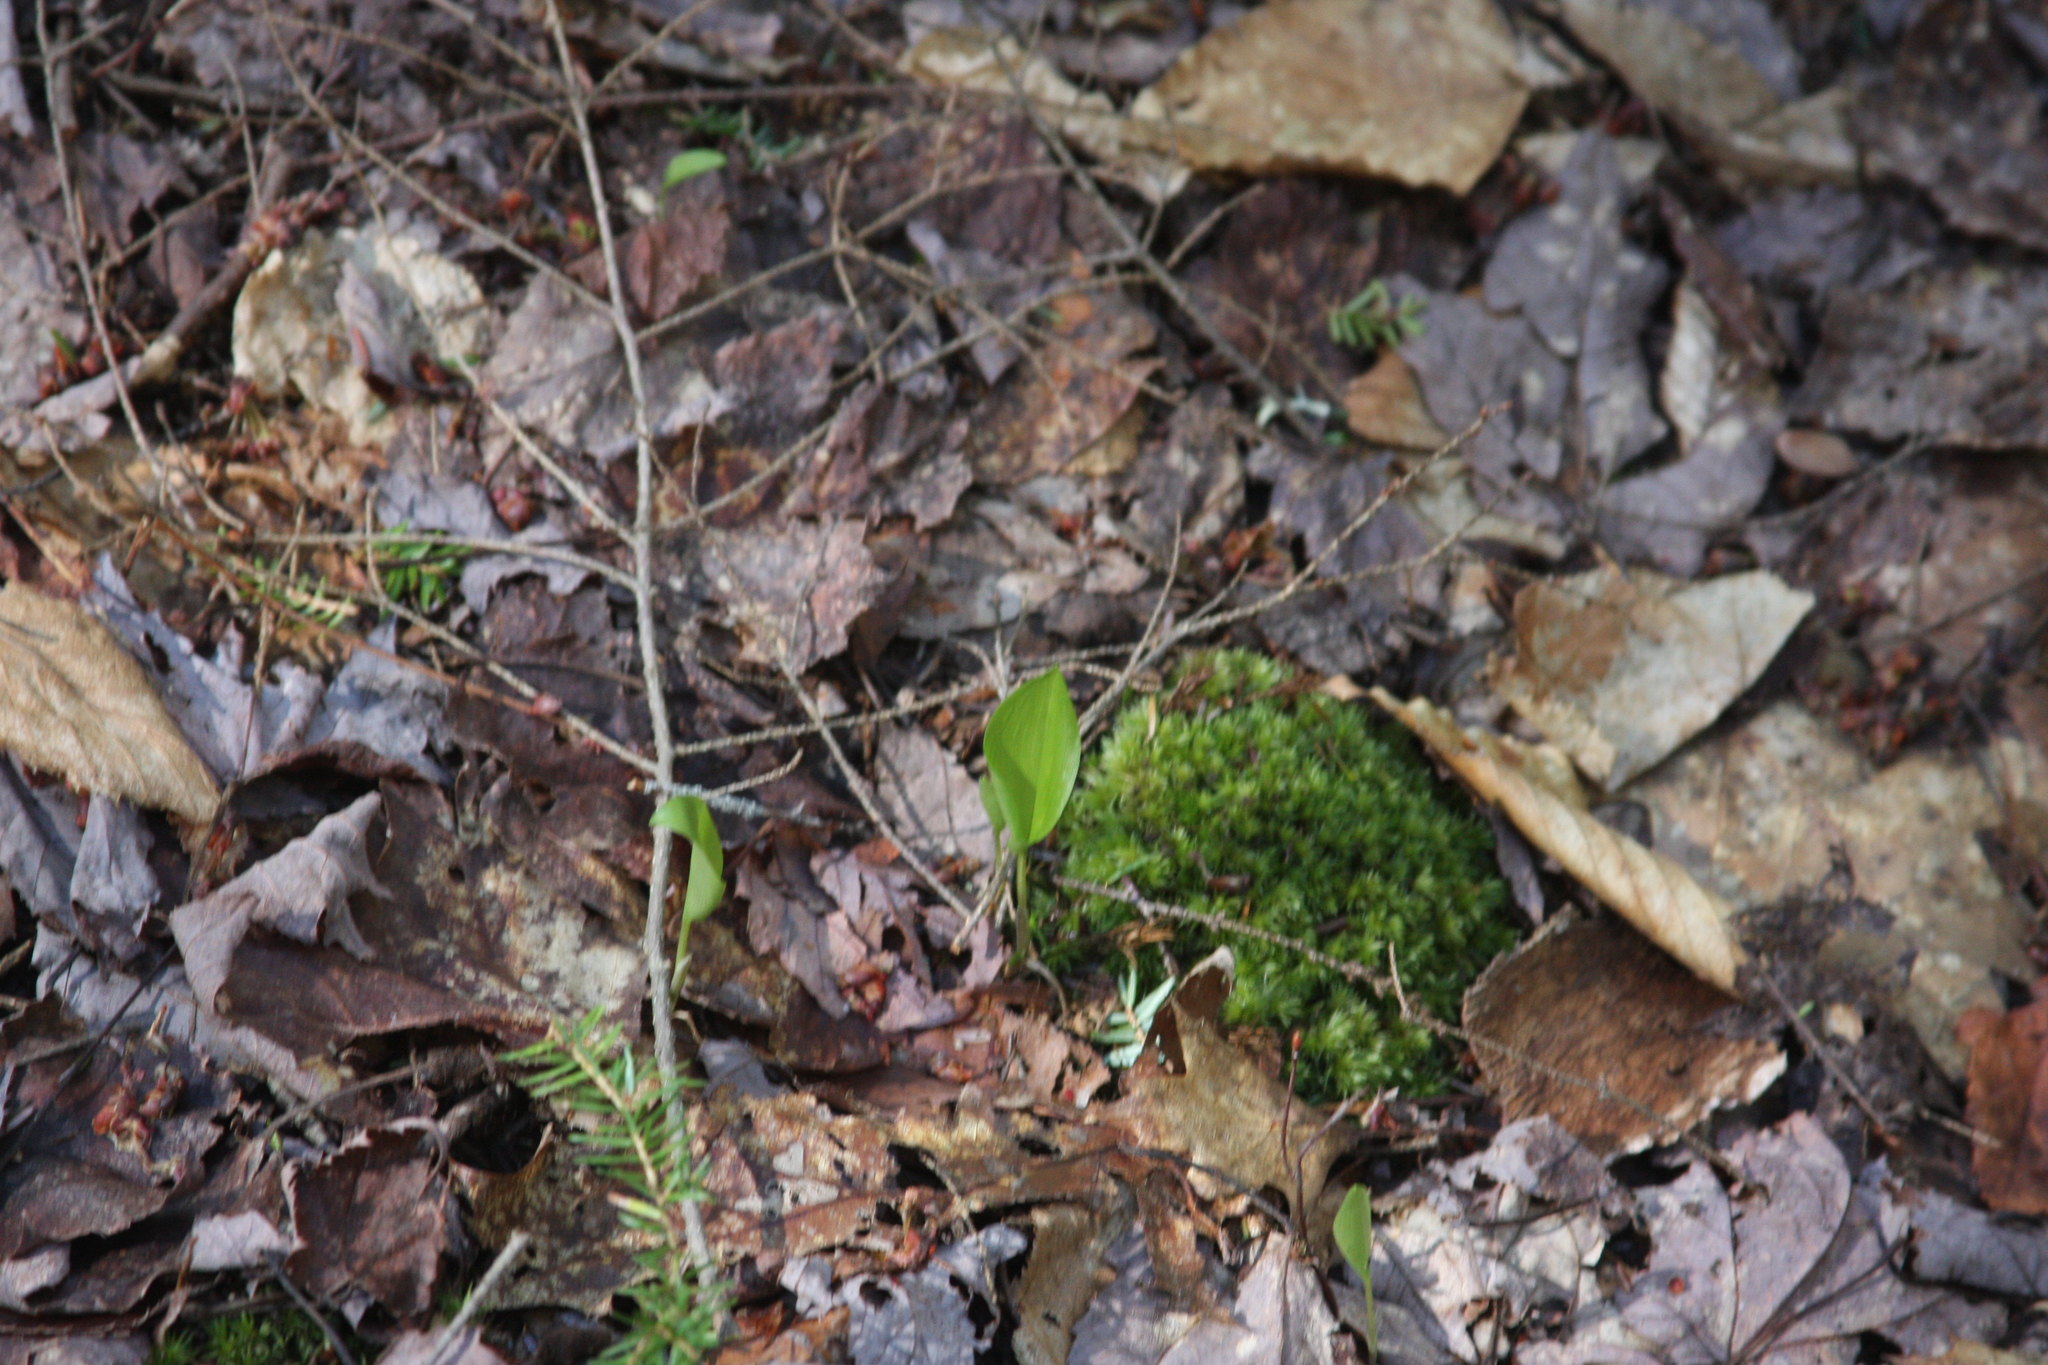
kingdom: Plantae
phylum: Tracheophyta
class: Liliopsida
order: Asparagales
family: Asparagaceae
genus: Maianthemum
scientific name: Maianthemum canadense
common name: False lily-of-the-valley
